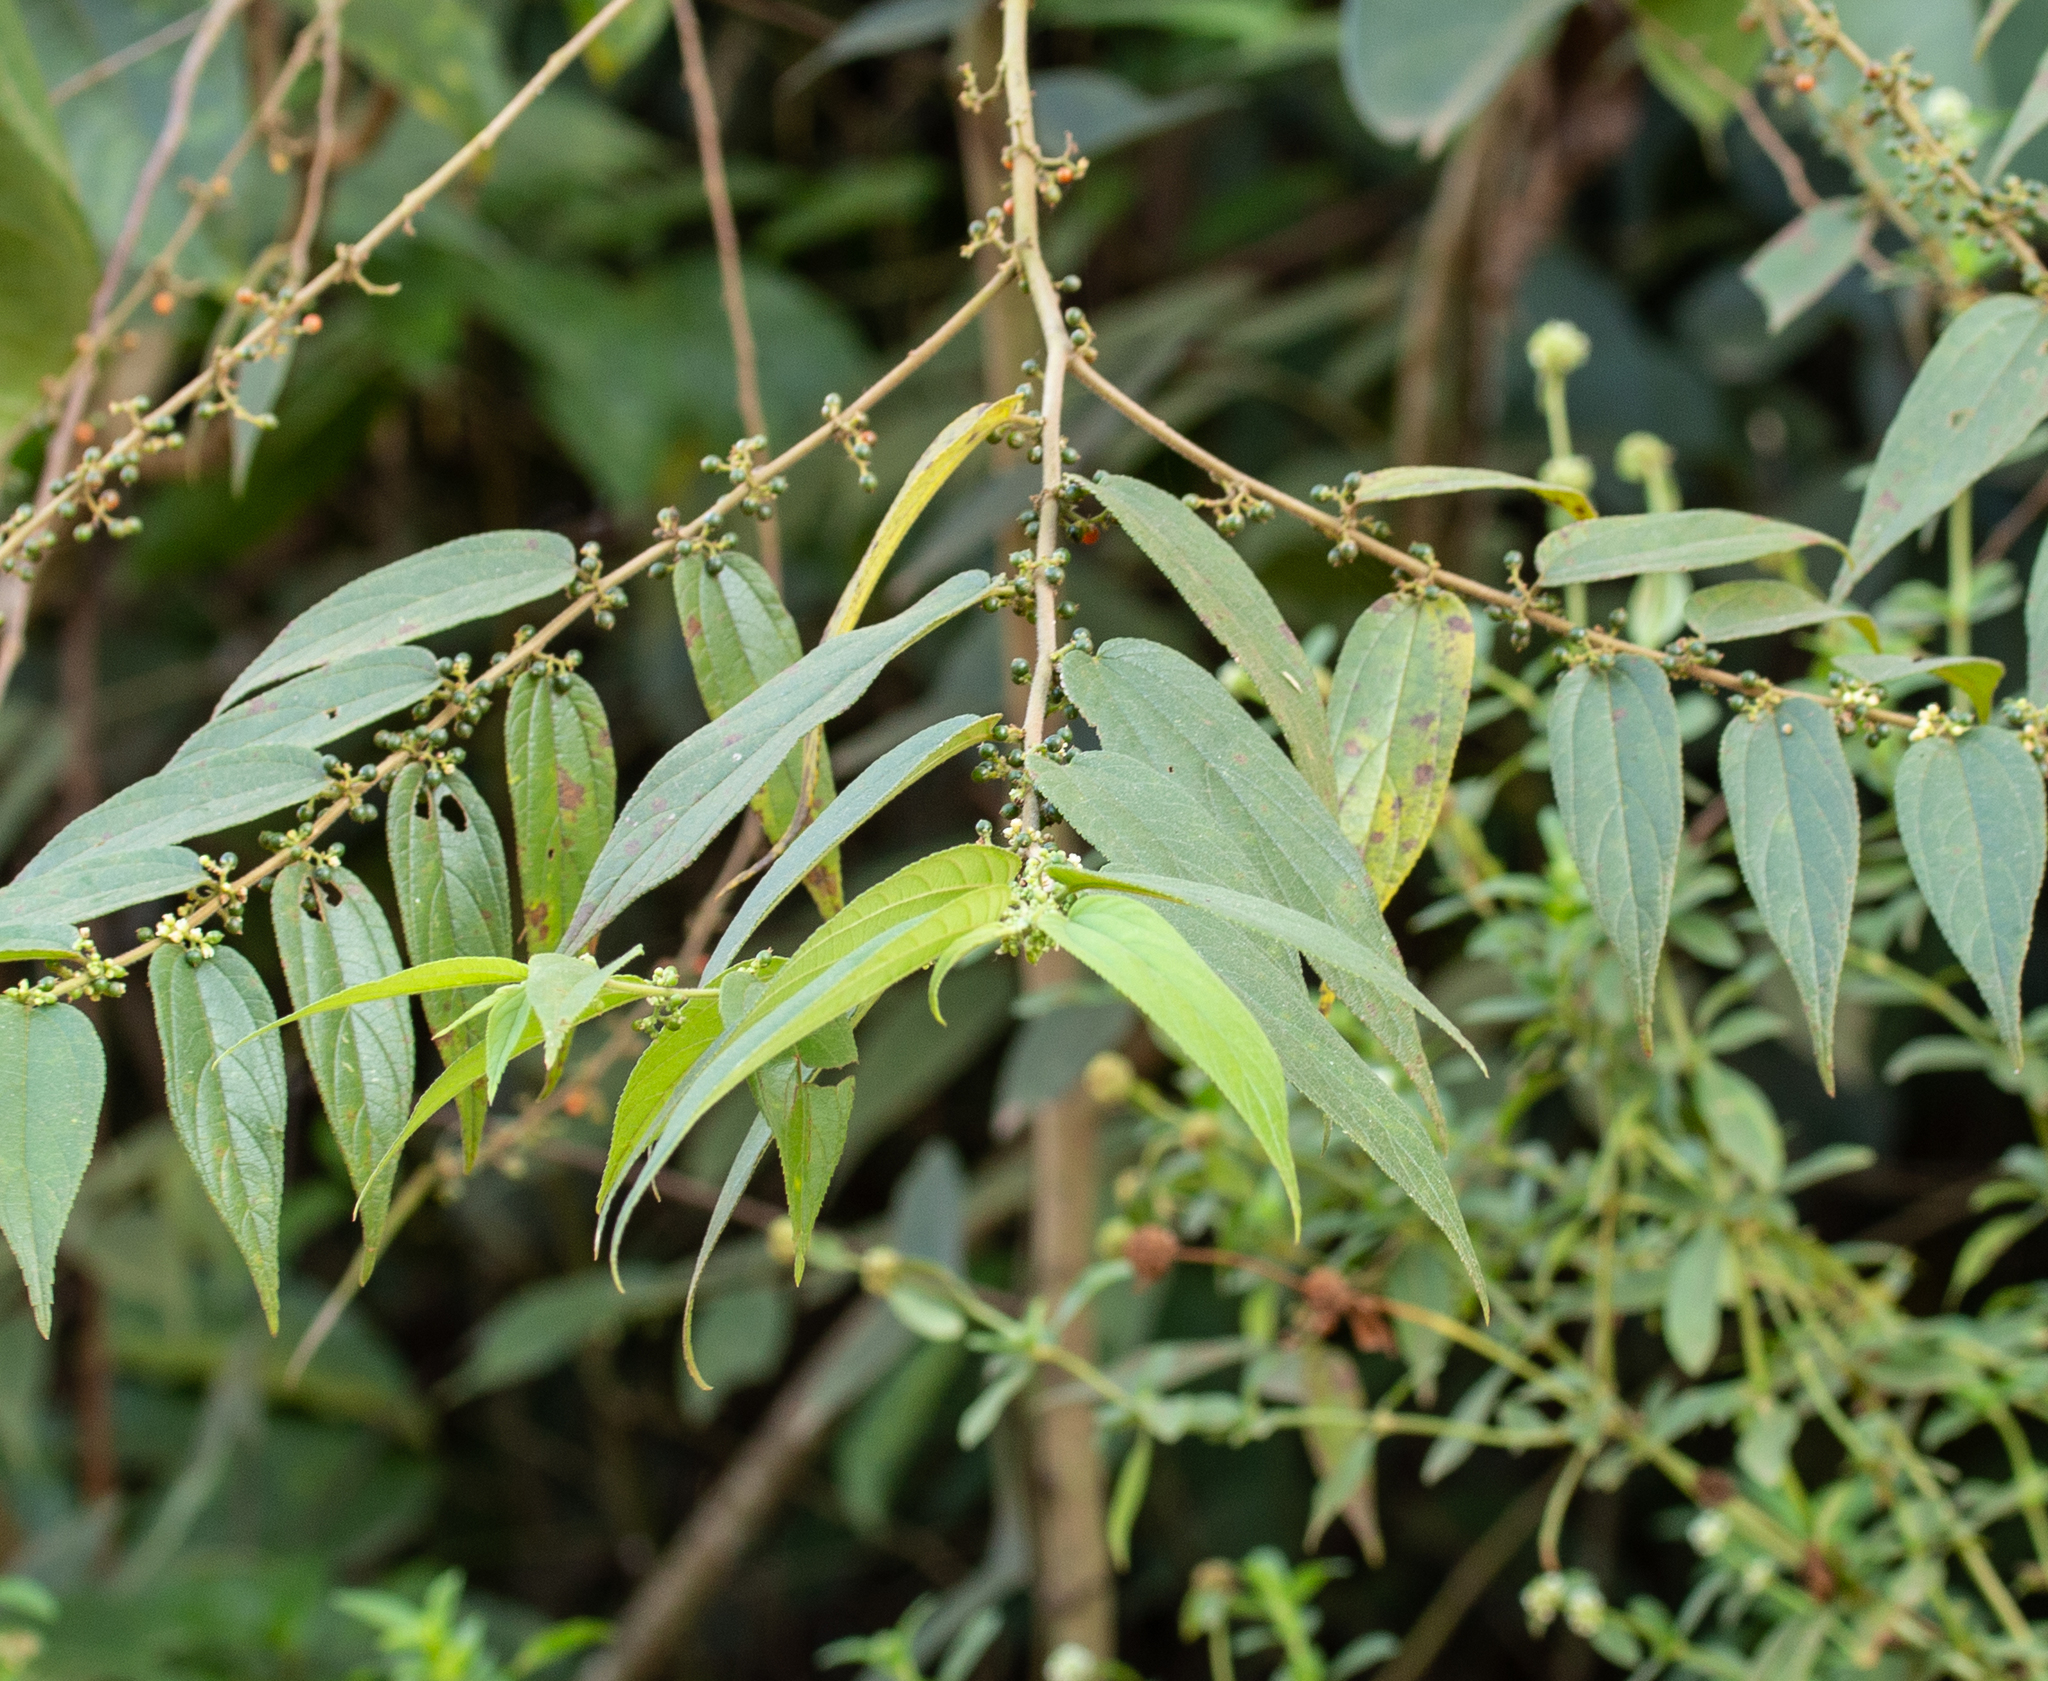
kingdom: Plantae
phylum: Tracheophyta
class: Magnoliopsida
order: Rosales
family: Cannabaceae
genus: Trema
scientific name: Trema micranthum
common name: Jamaican nettletree
